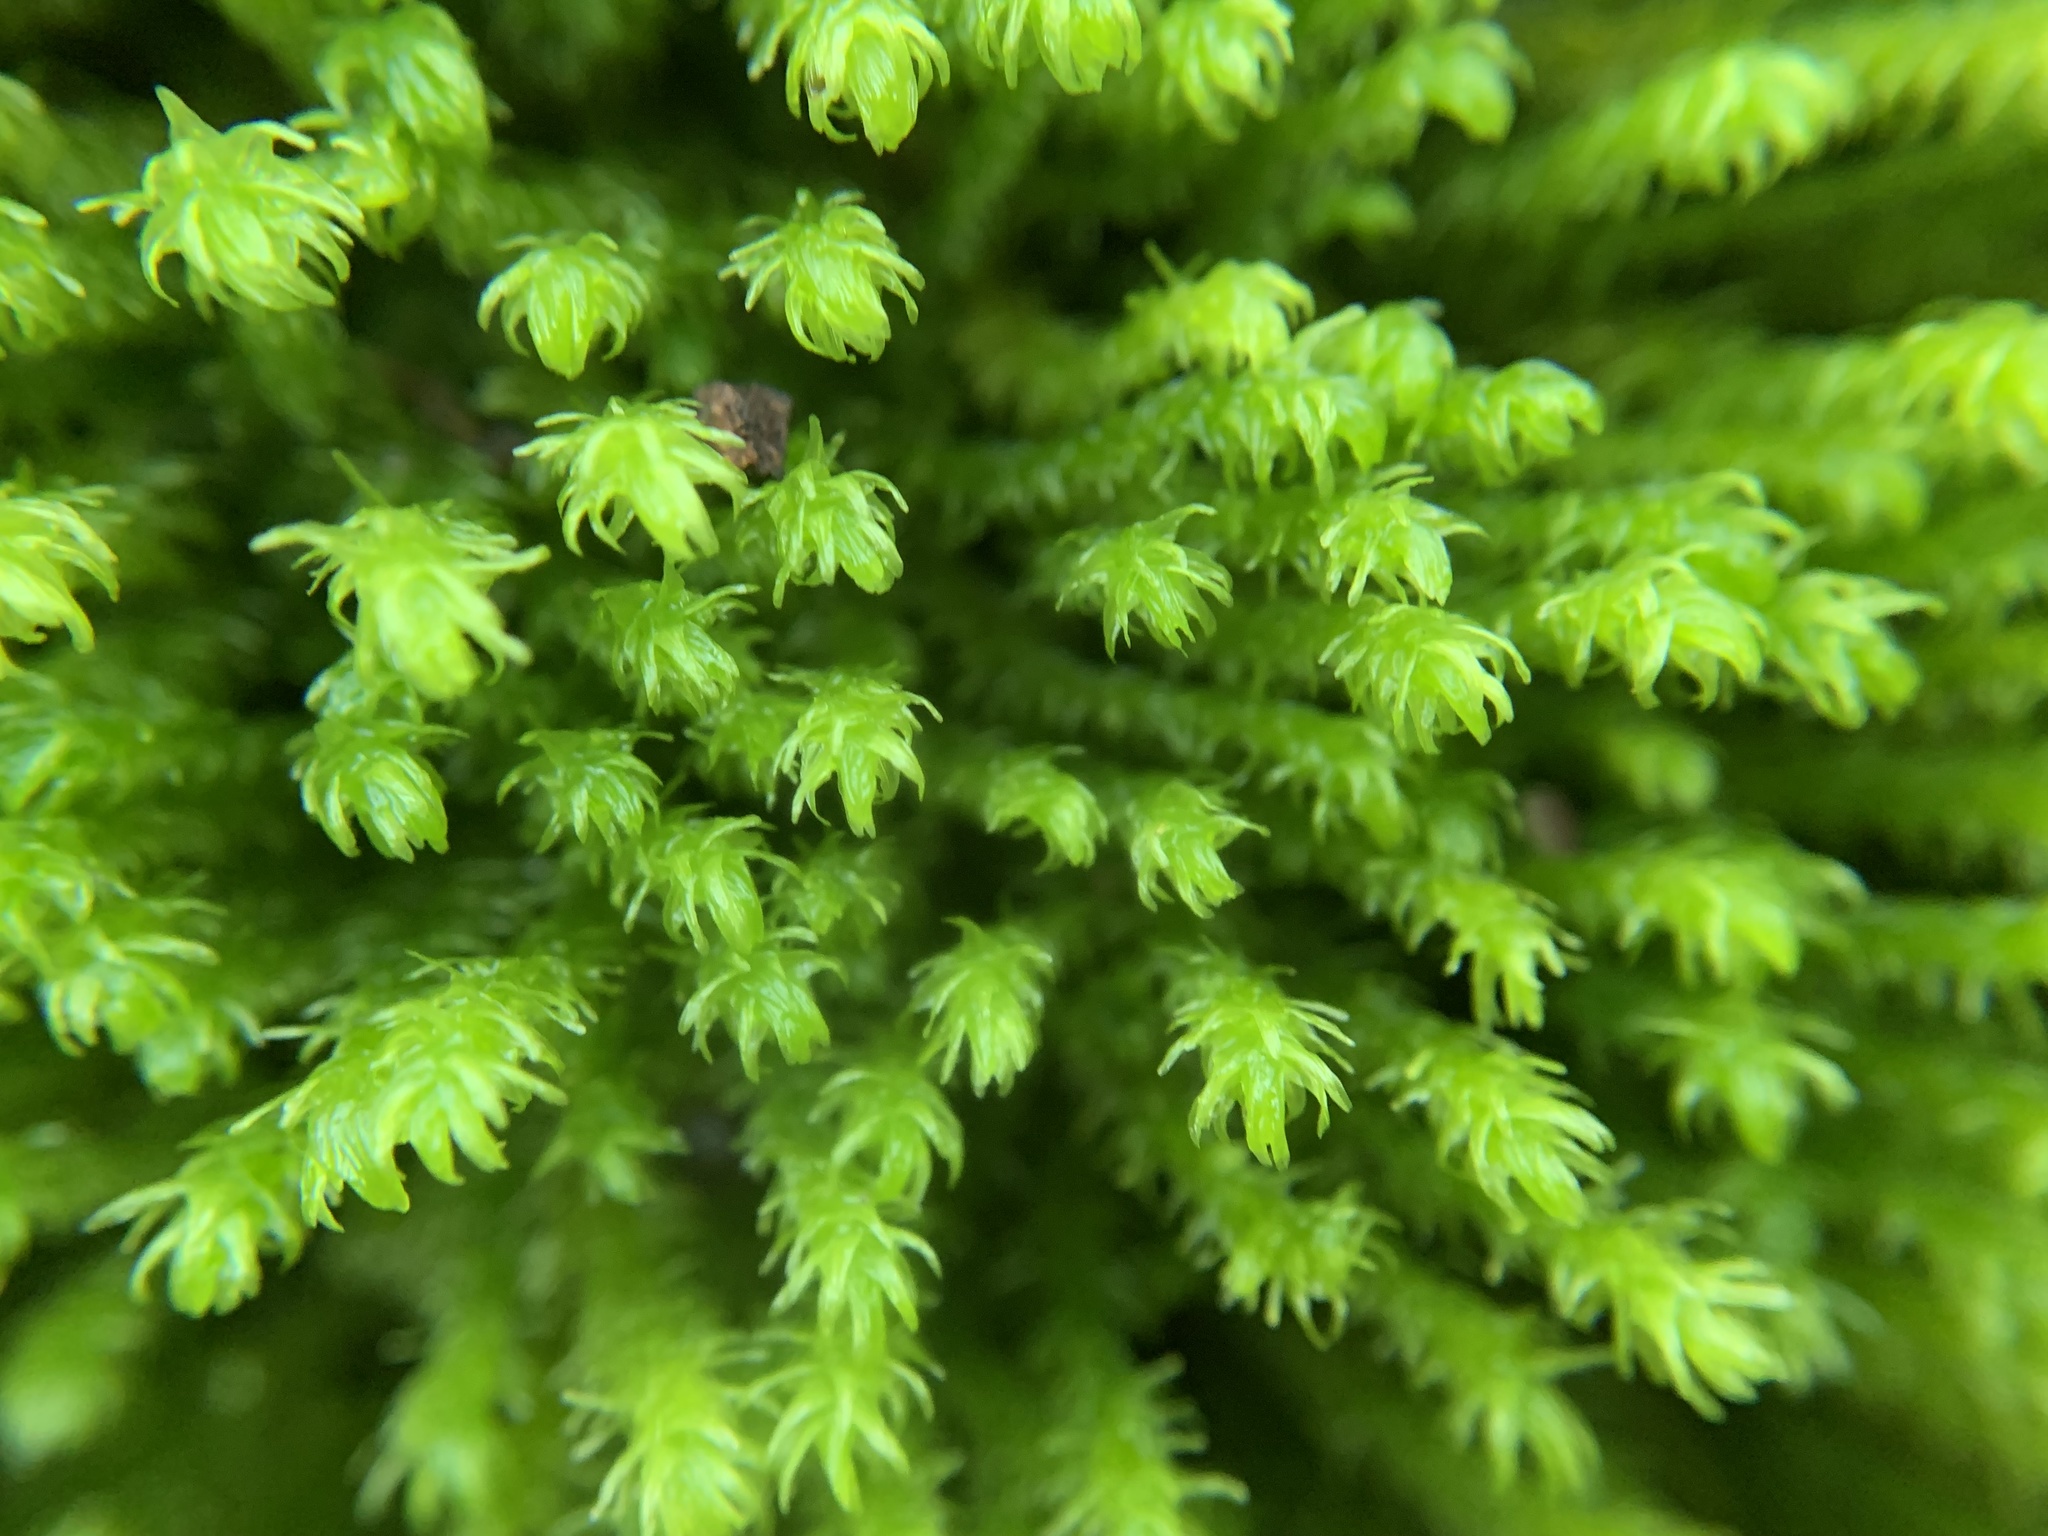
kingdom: Plantae
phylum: Bryophyta
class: Bryopsida
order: Hypnales
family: Anomodontaceae
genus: Anomodon
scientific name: Anomodon viticulosus
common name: Tall anomodon
